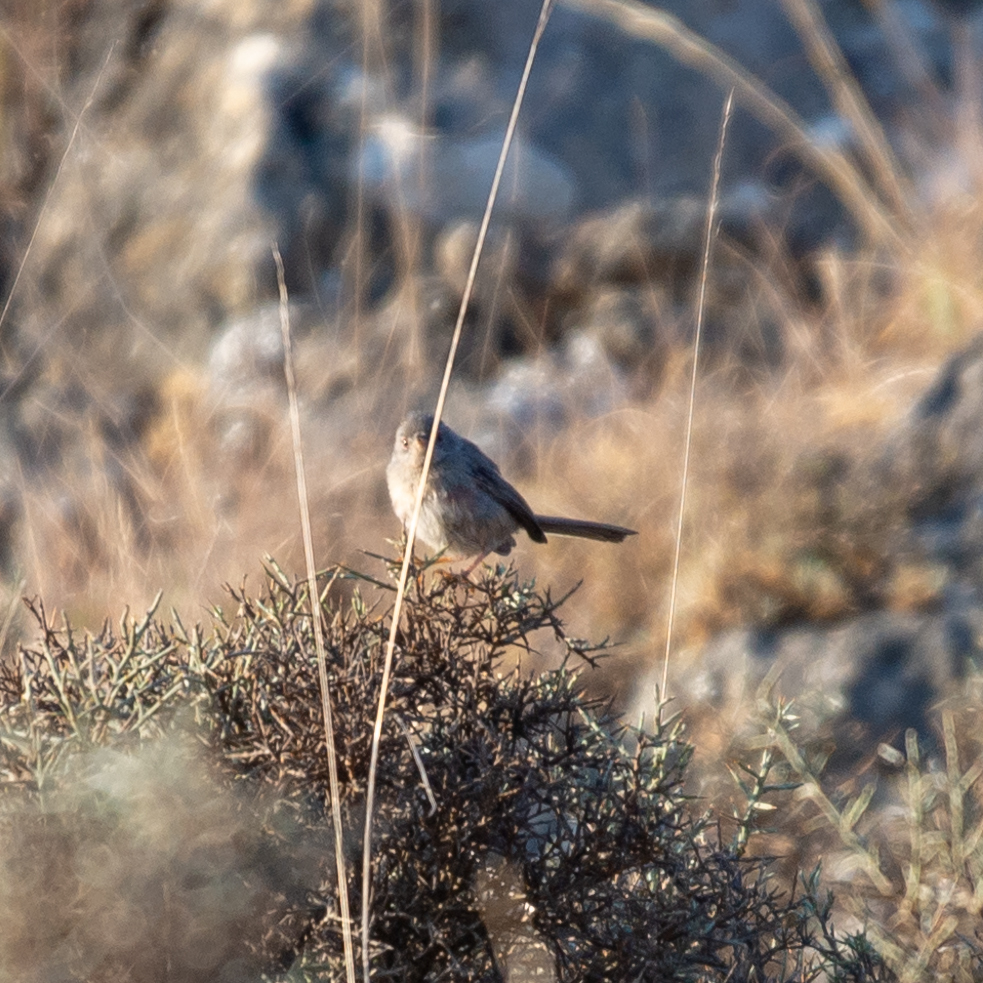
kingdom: Animalia
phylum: Chordata
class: Aves
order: Passeriformes
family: Sylviidae
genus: Sylvia
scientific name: Sylvia undata
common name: Dartford warbler
